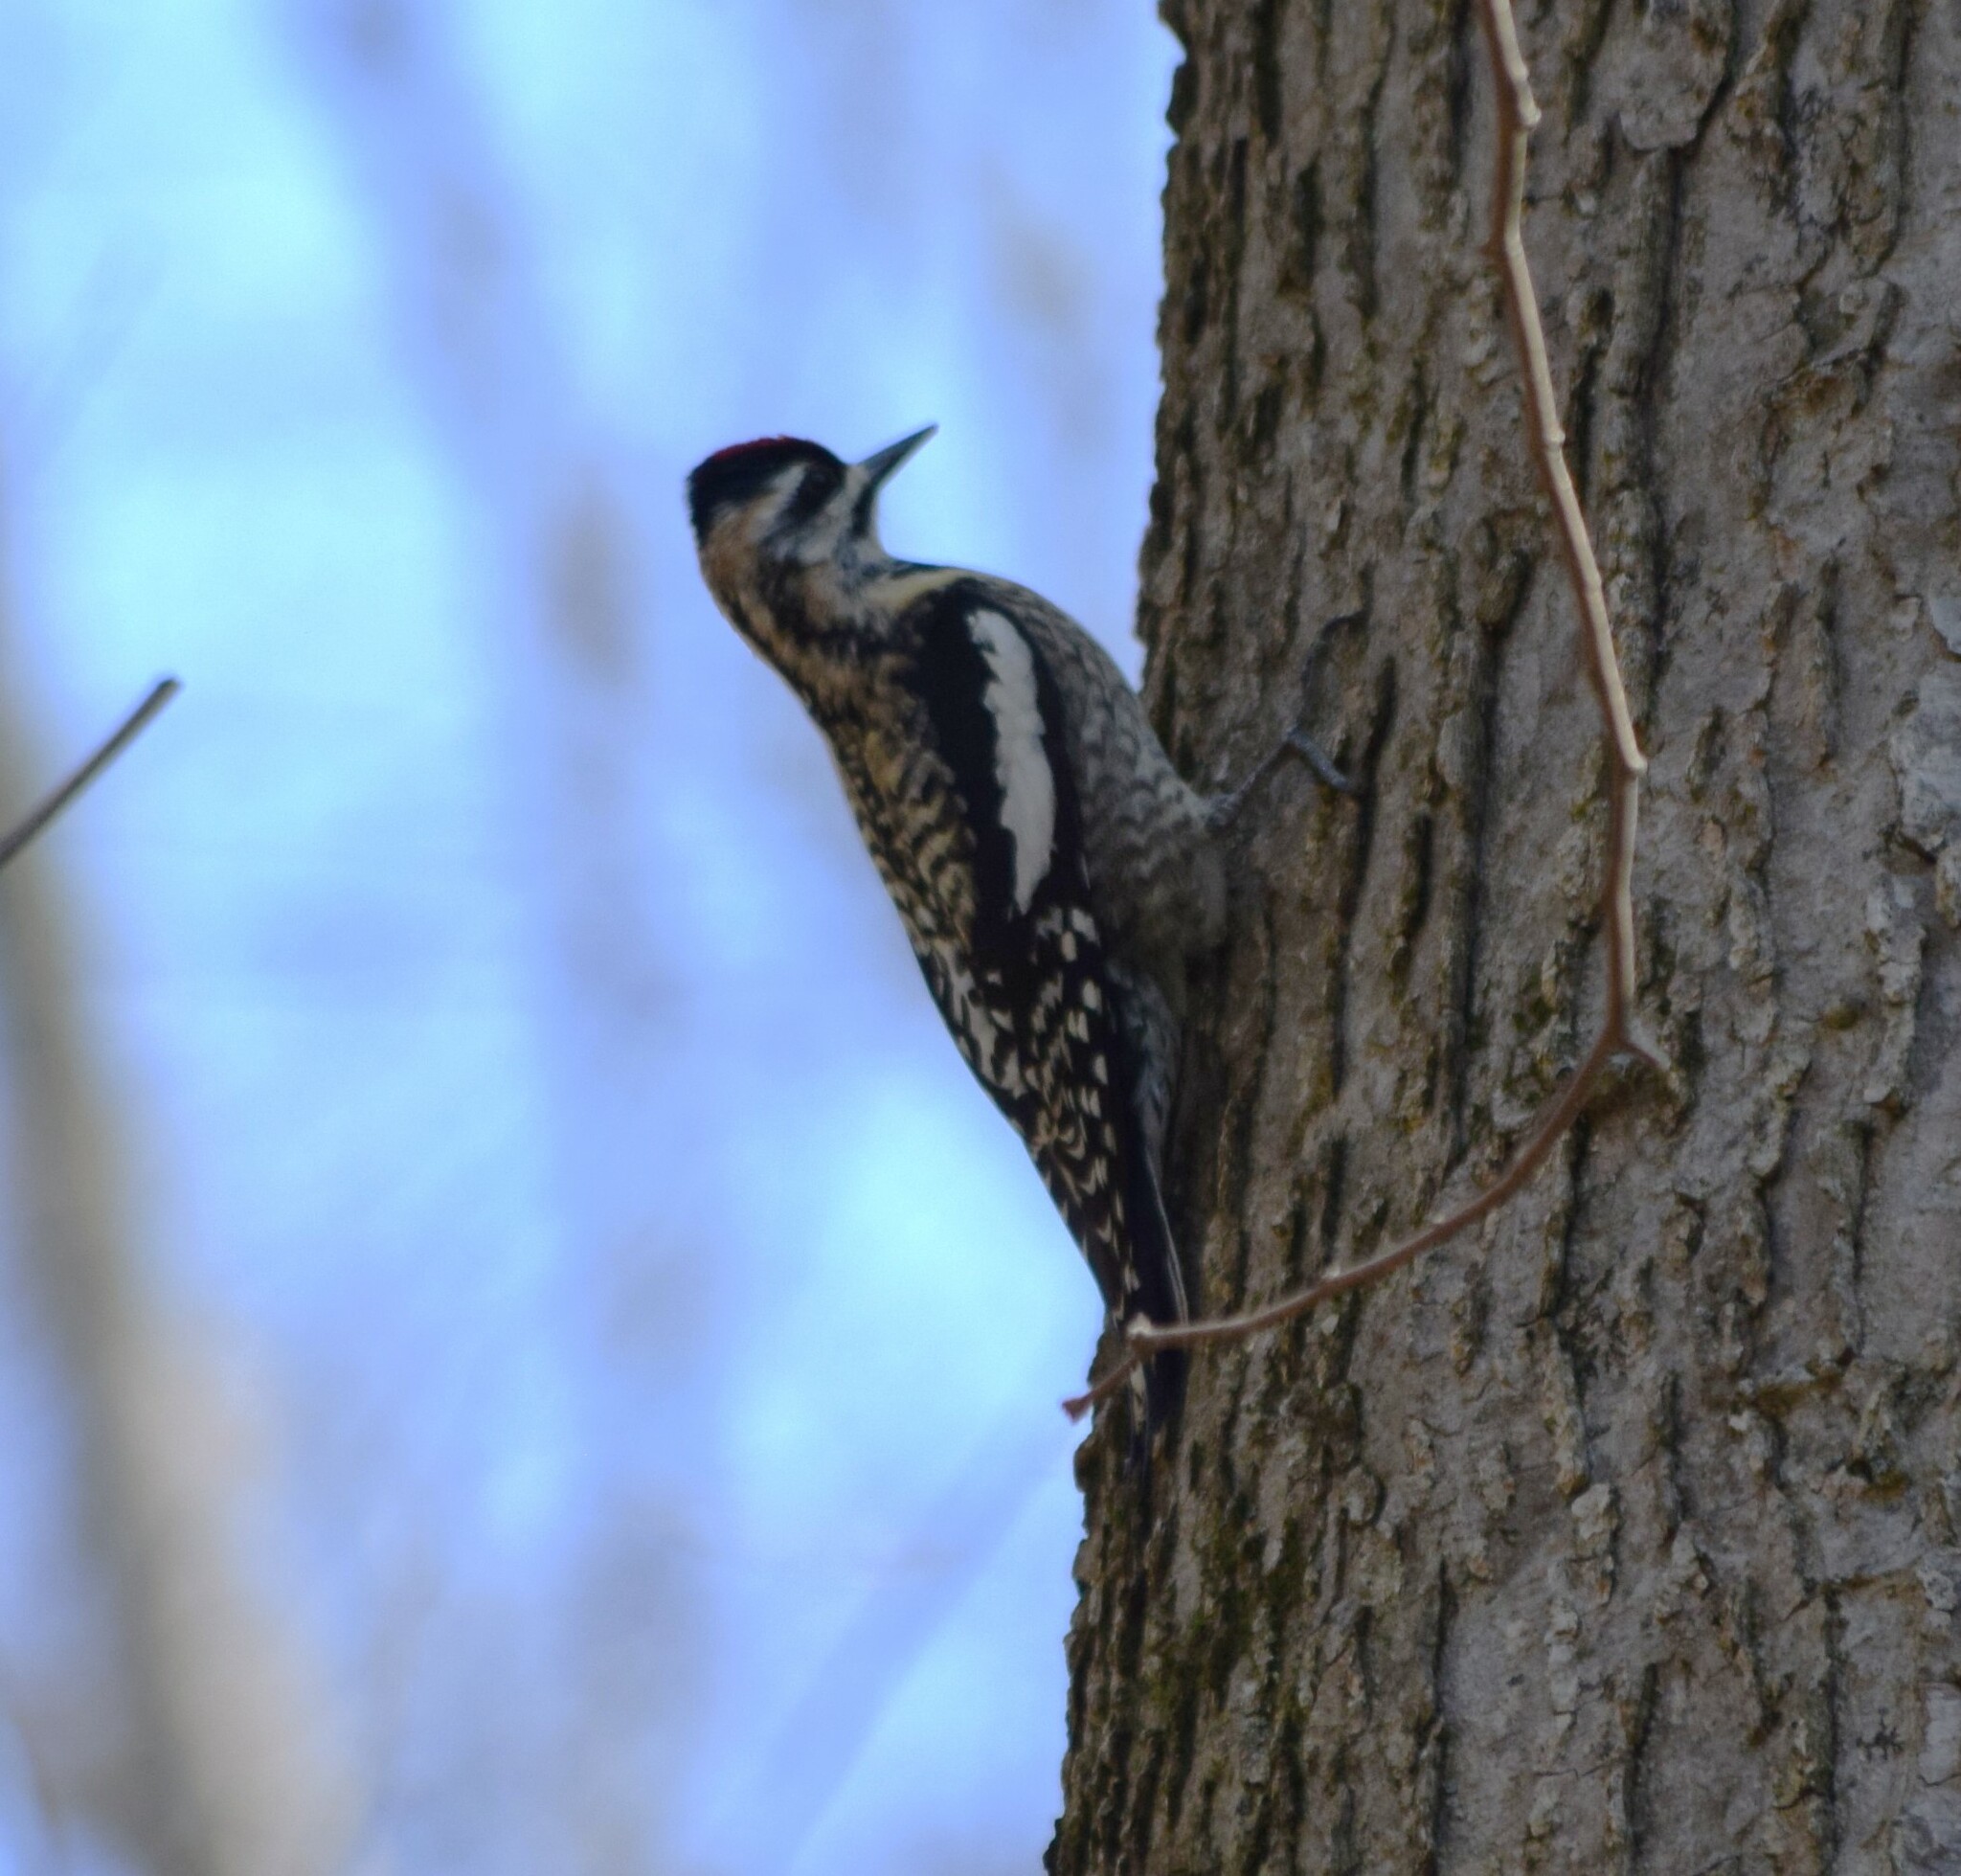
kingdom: Animalia
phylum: Chordata
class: Aves
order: Piciformes
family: Picidae
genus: Sphyrapicus
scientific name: Sphyrapicus varius
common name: Yellow-bellied sapsucker
